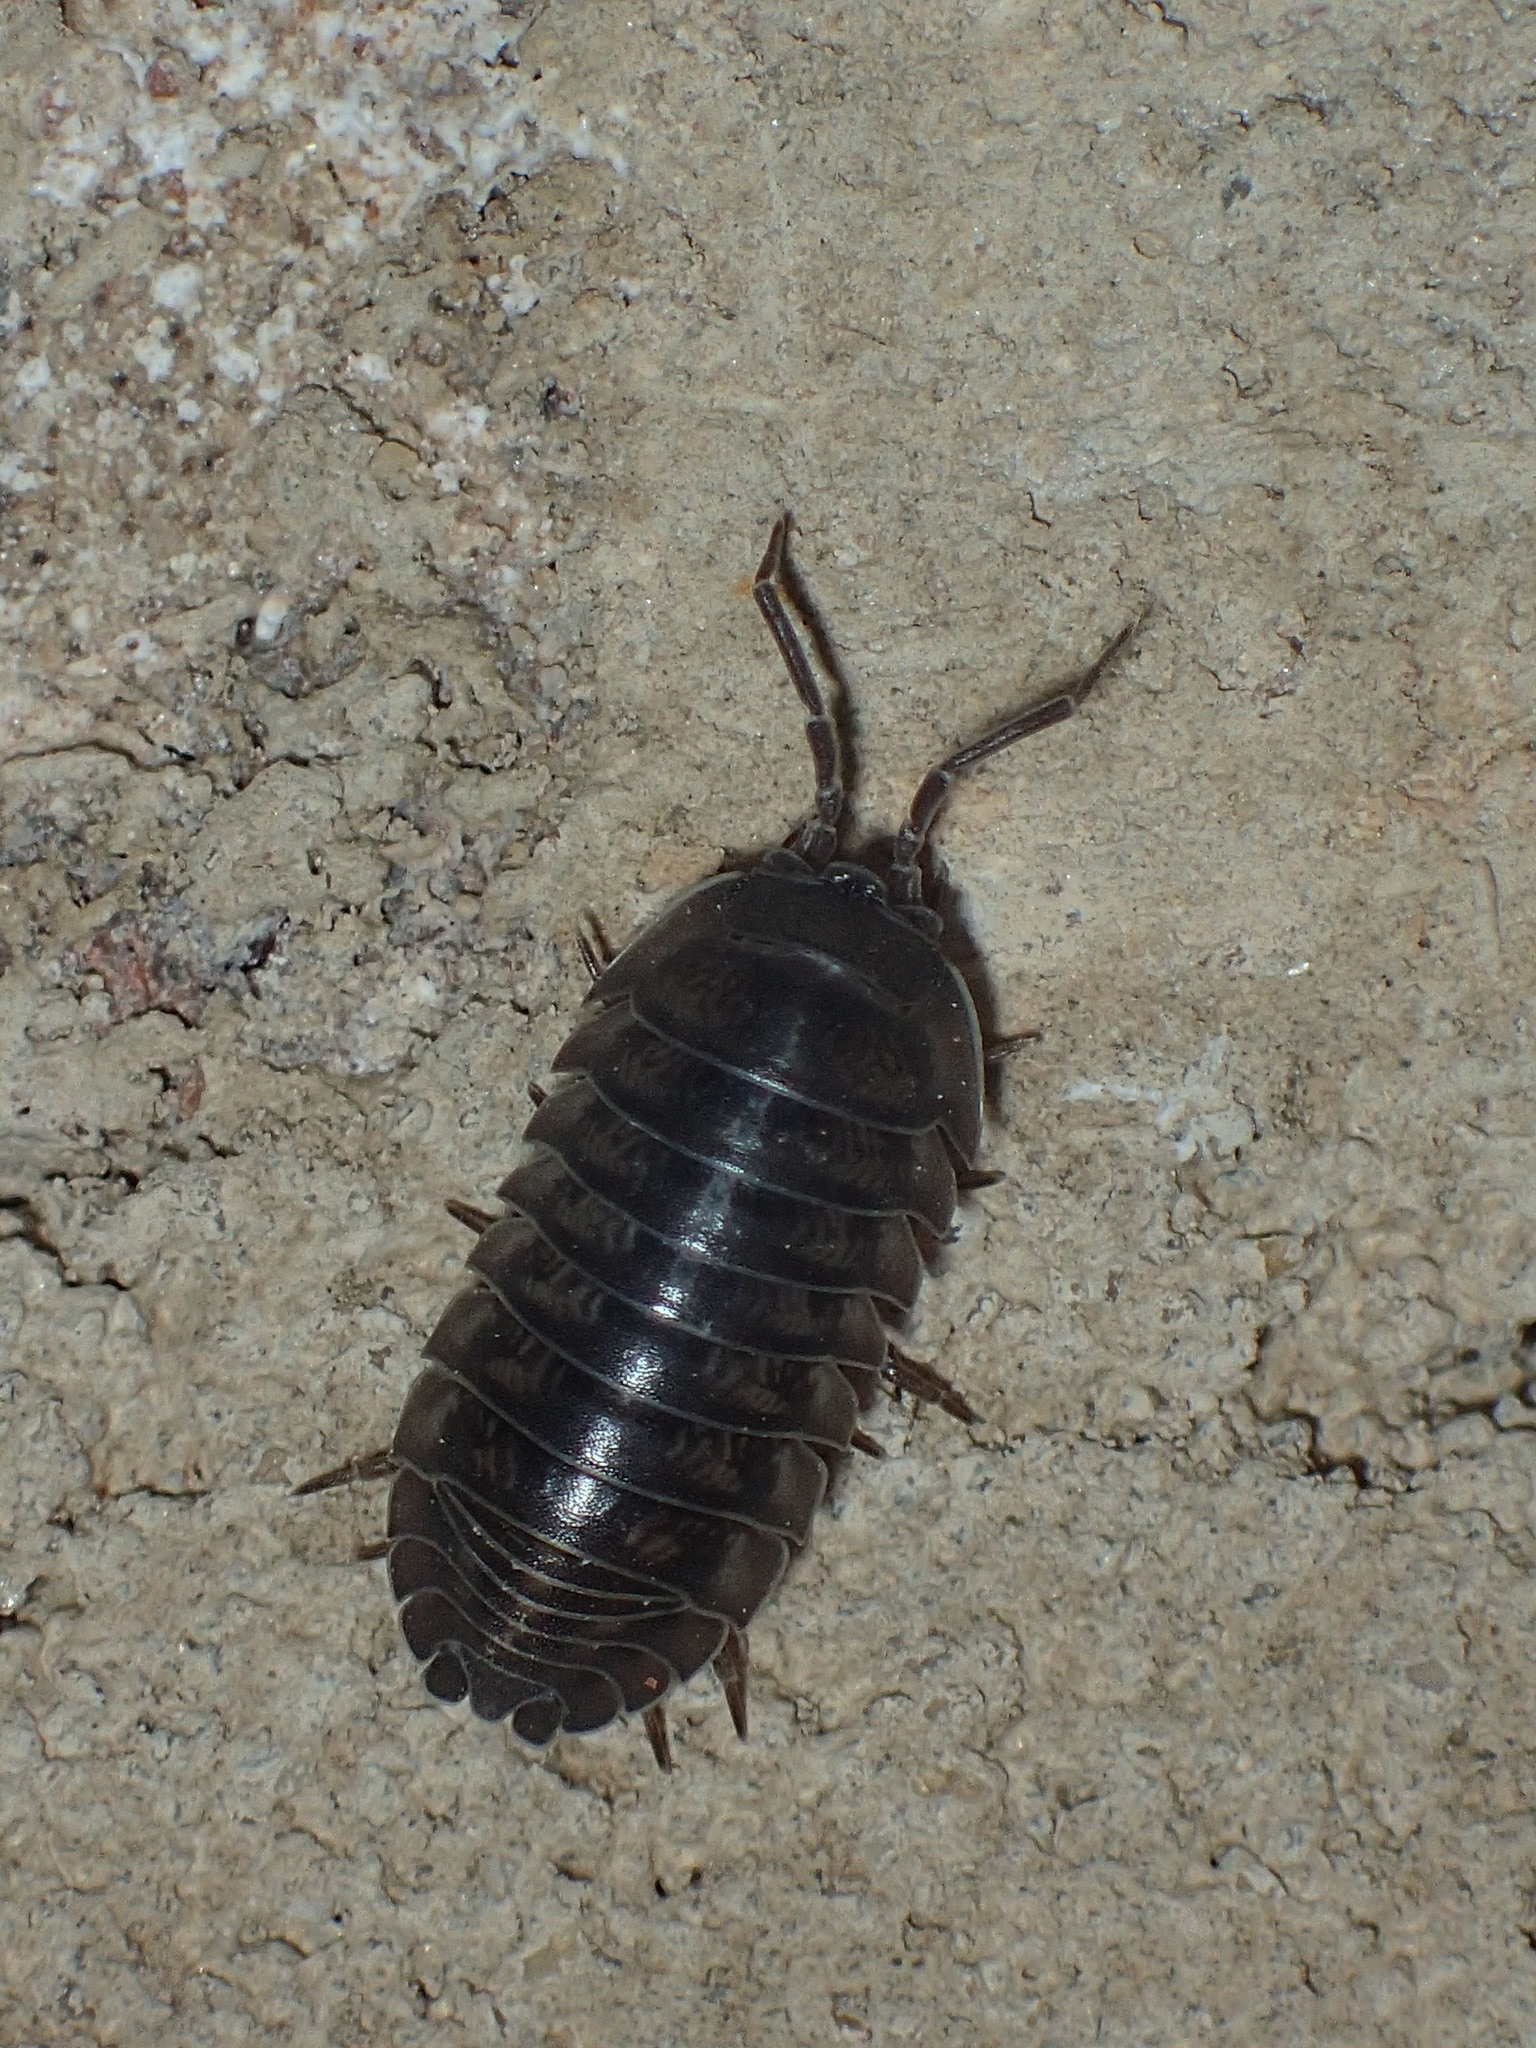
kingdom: Animalia
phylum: Arthropoda
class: Malacostraca
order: Isopoda
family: Armadillidiidae
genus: Armadillidium
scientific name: Armadillidium nasatum
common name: Isopod
